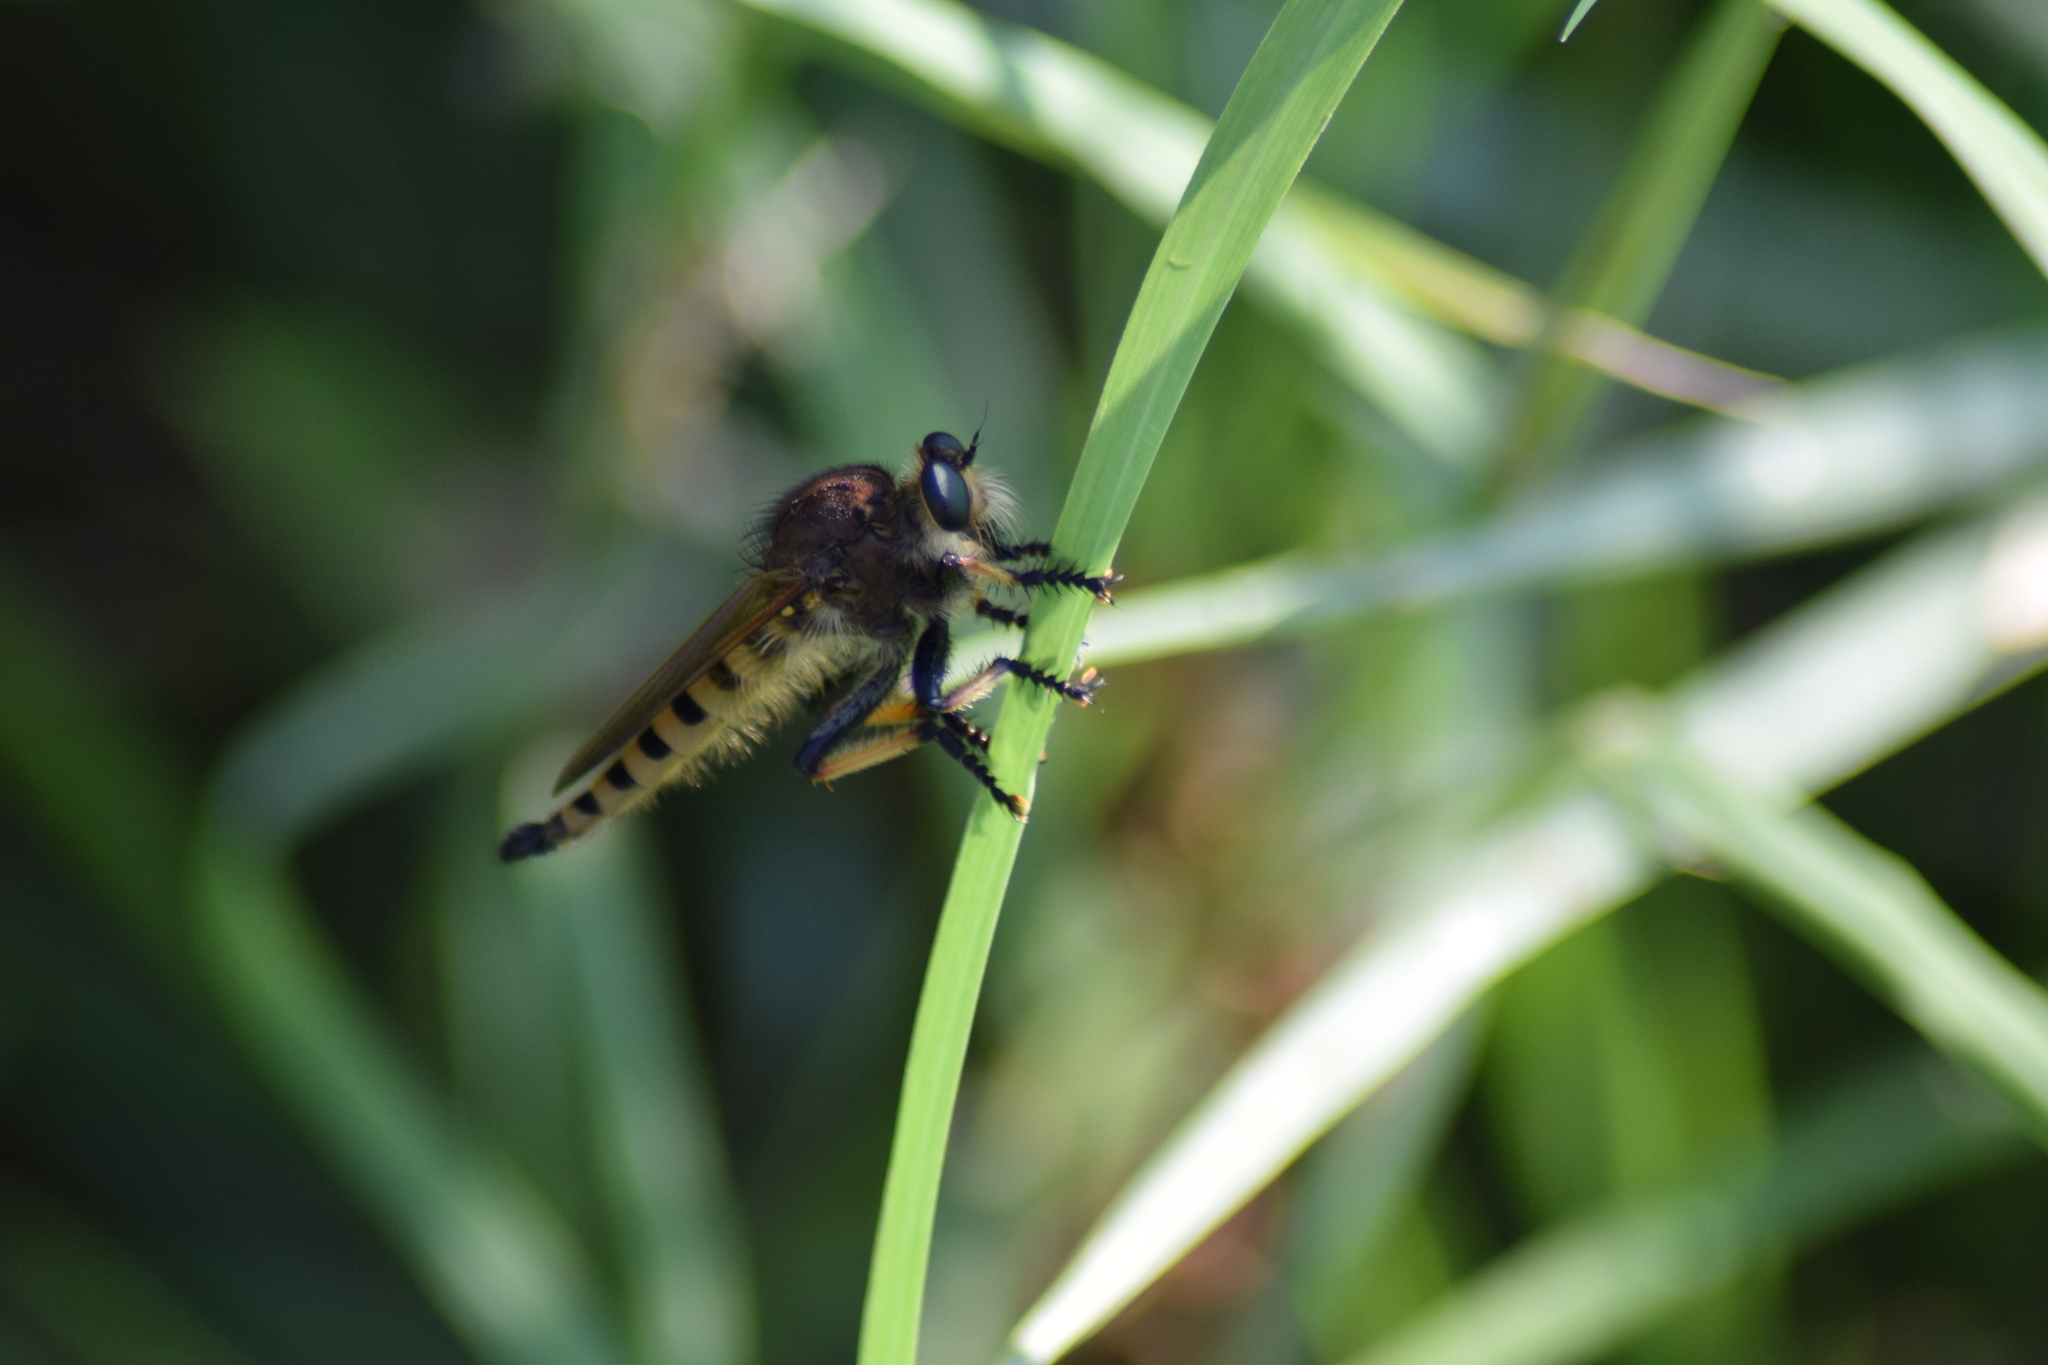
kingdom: Animalia
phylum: Arthropoda
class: Insecta
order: Diptera
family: Asilidae
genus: Promachus
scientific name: Promachus rufipes
